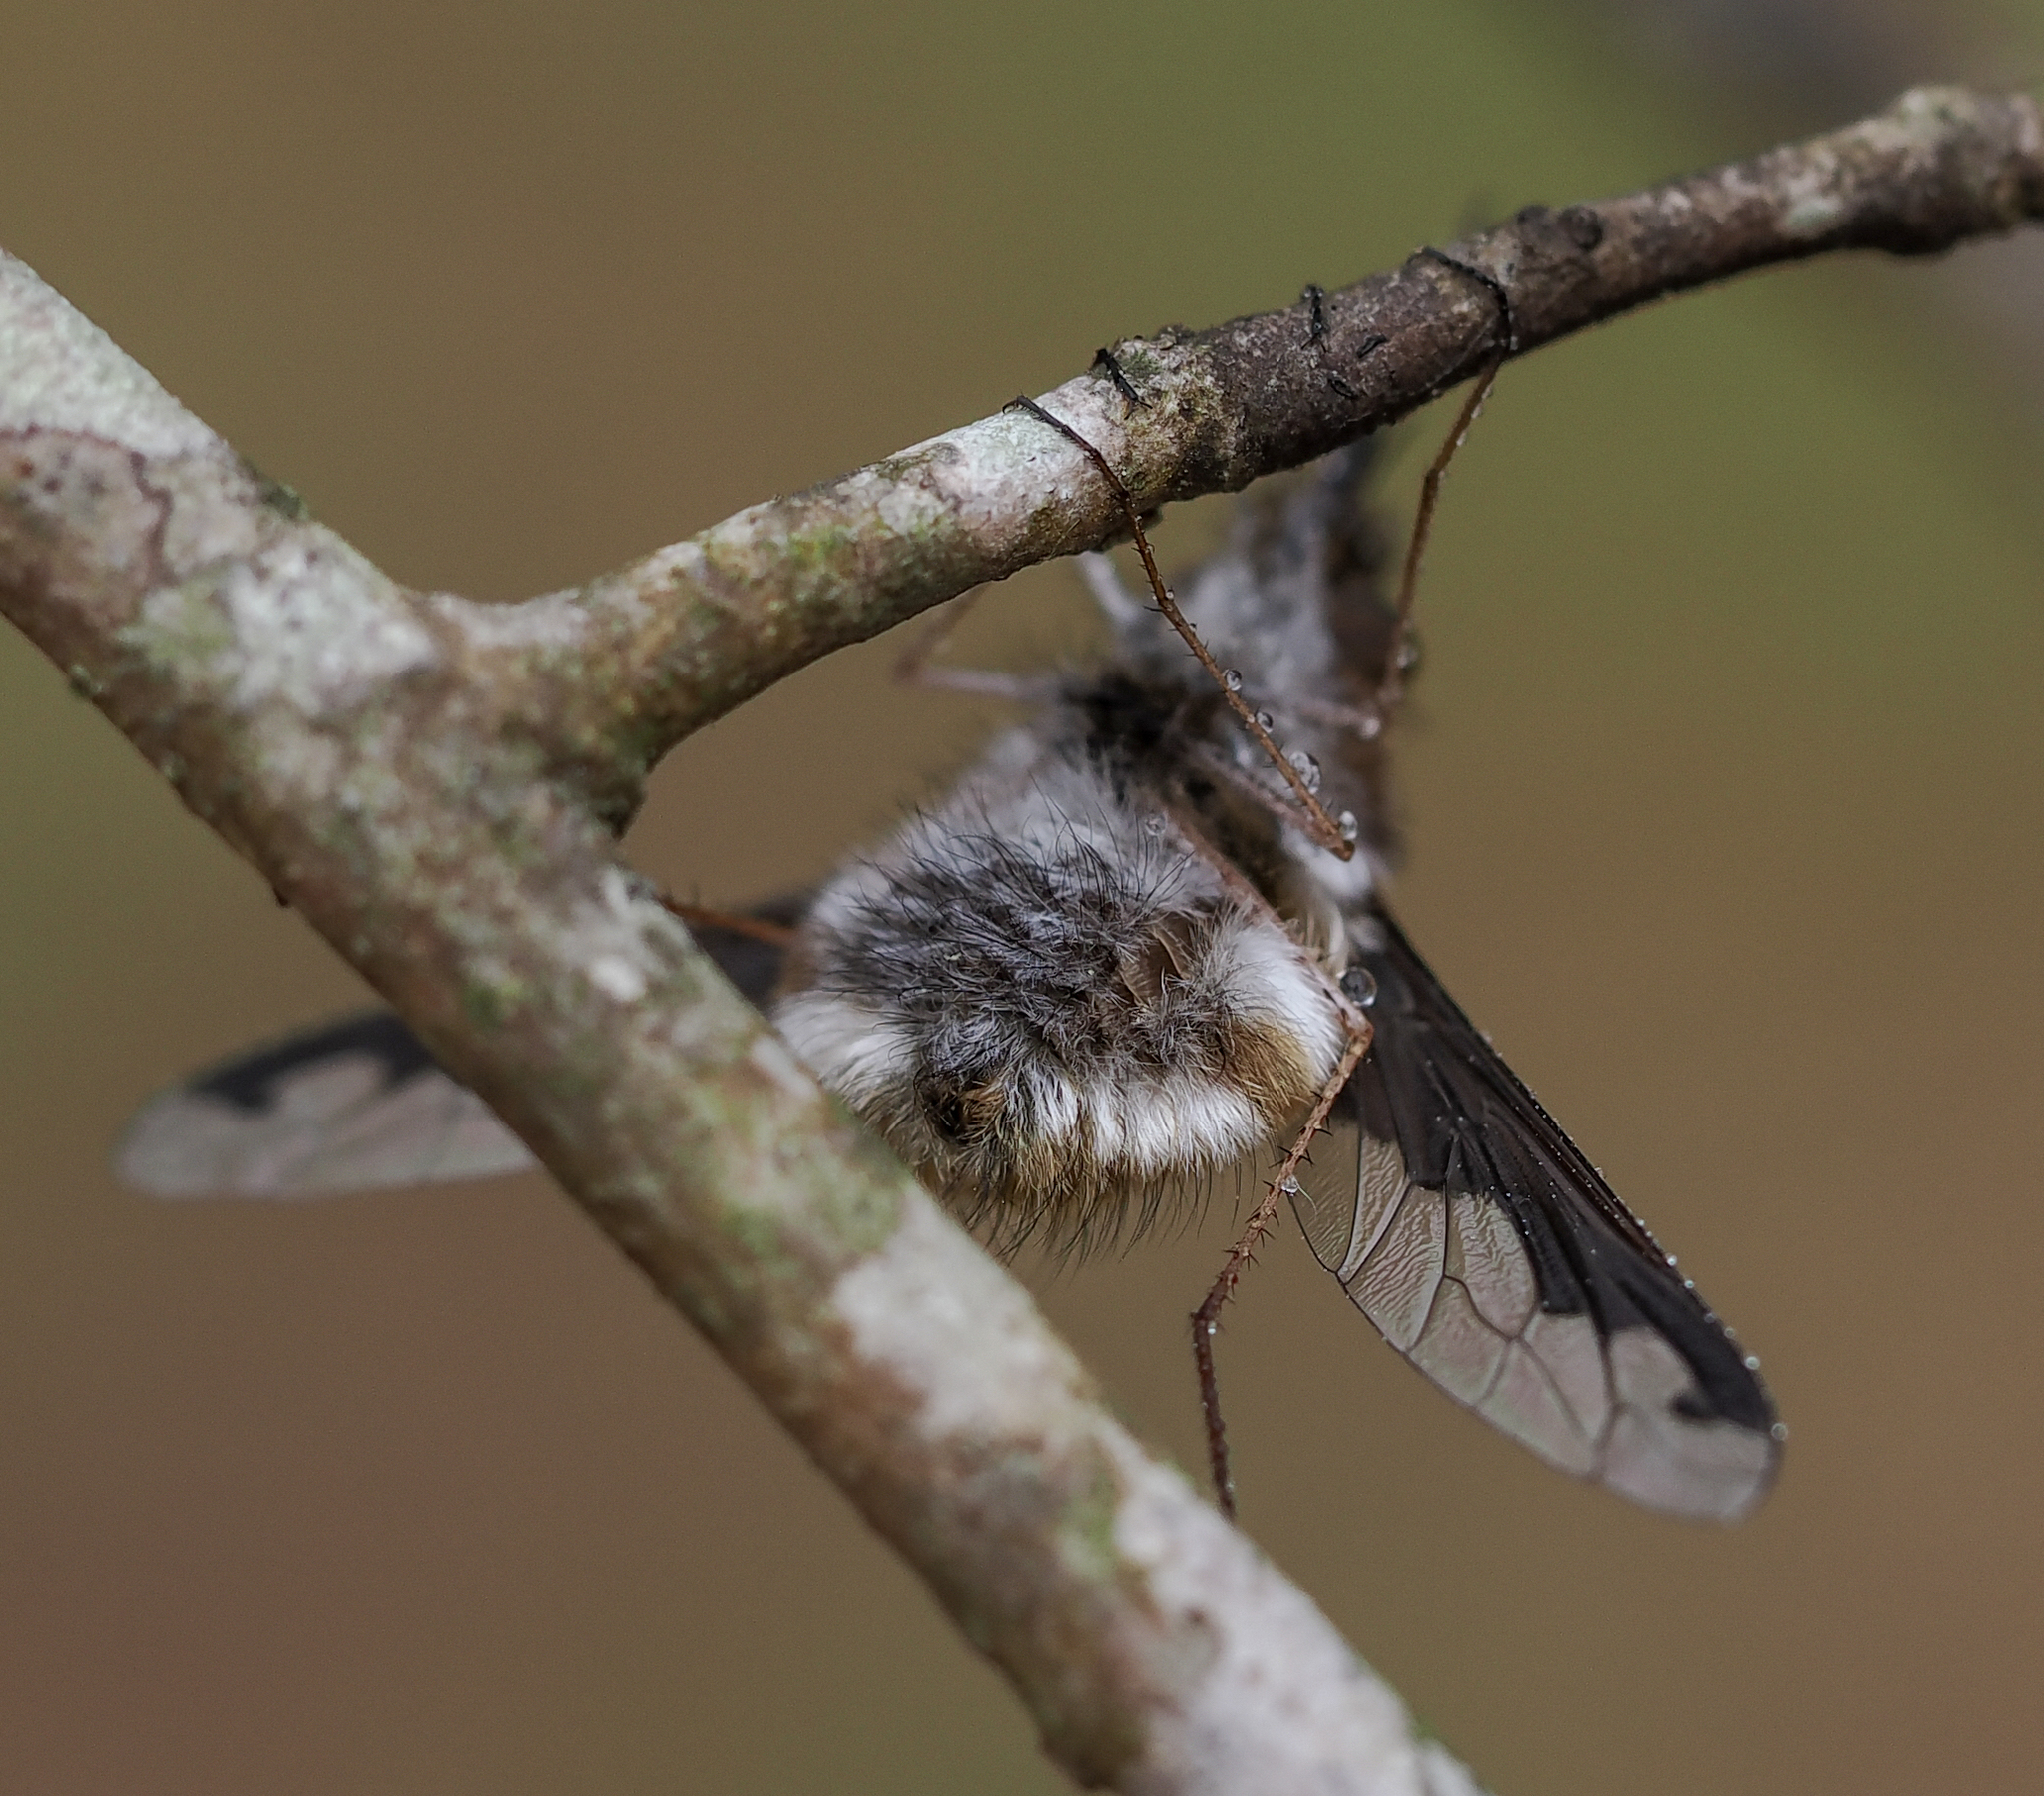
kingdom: Animalia
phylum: Arthropoda
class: Insecta
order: Diptera
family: Bombyliidae
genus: Bombylius
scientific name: Bombylius major
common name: Bee fly
